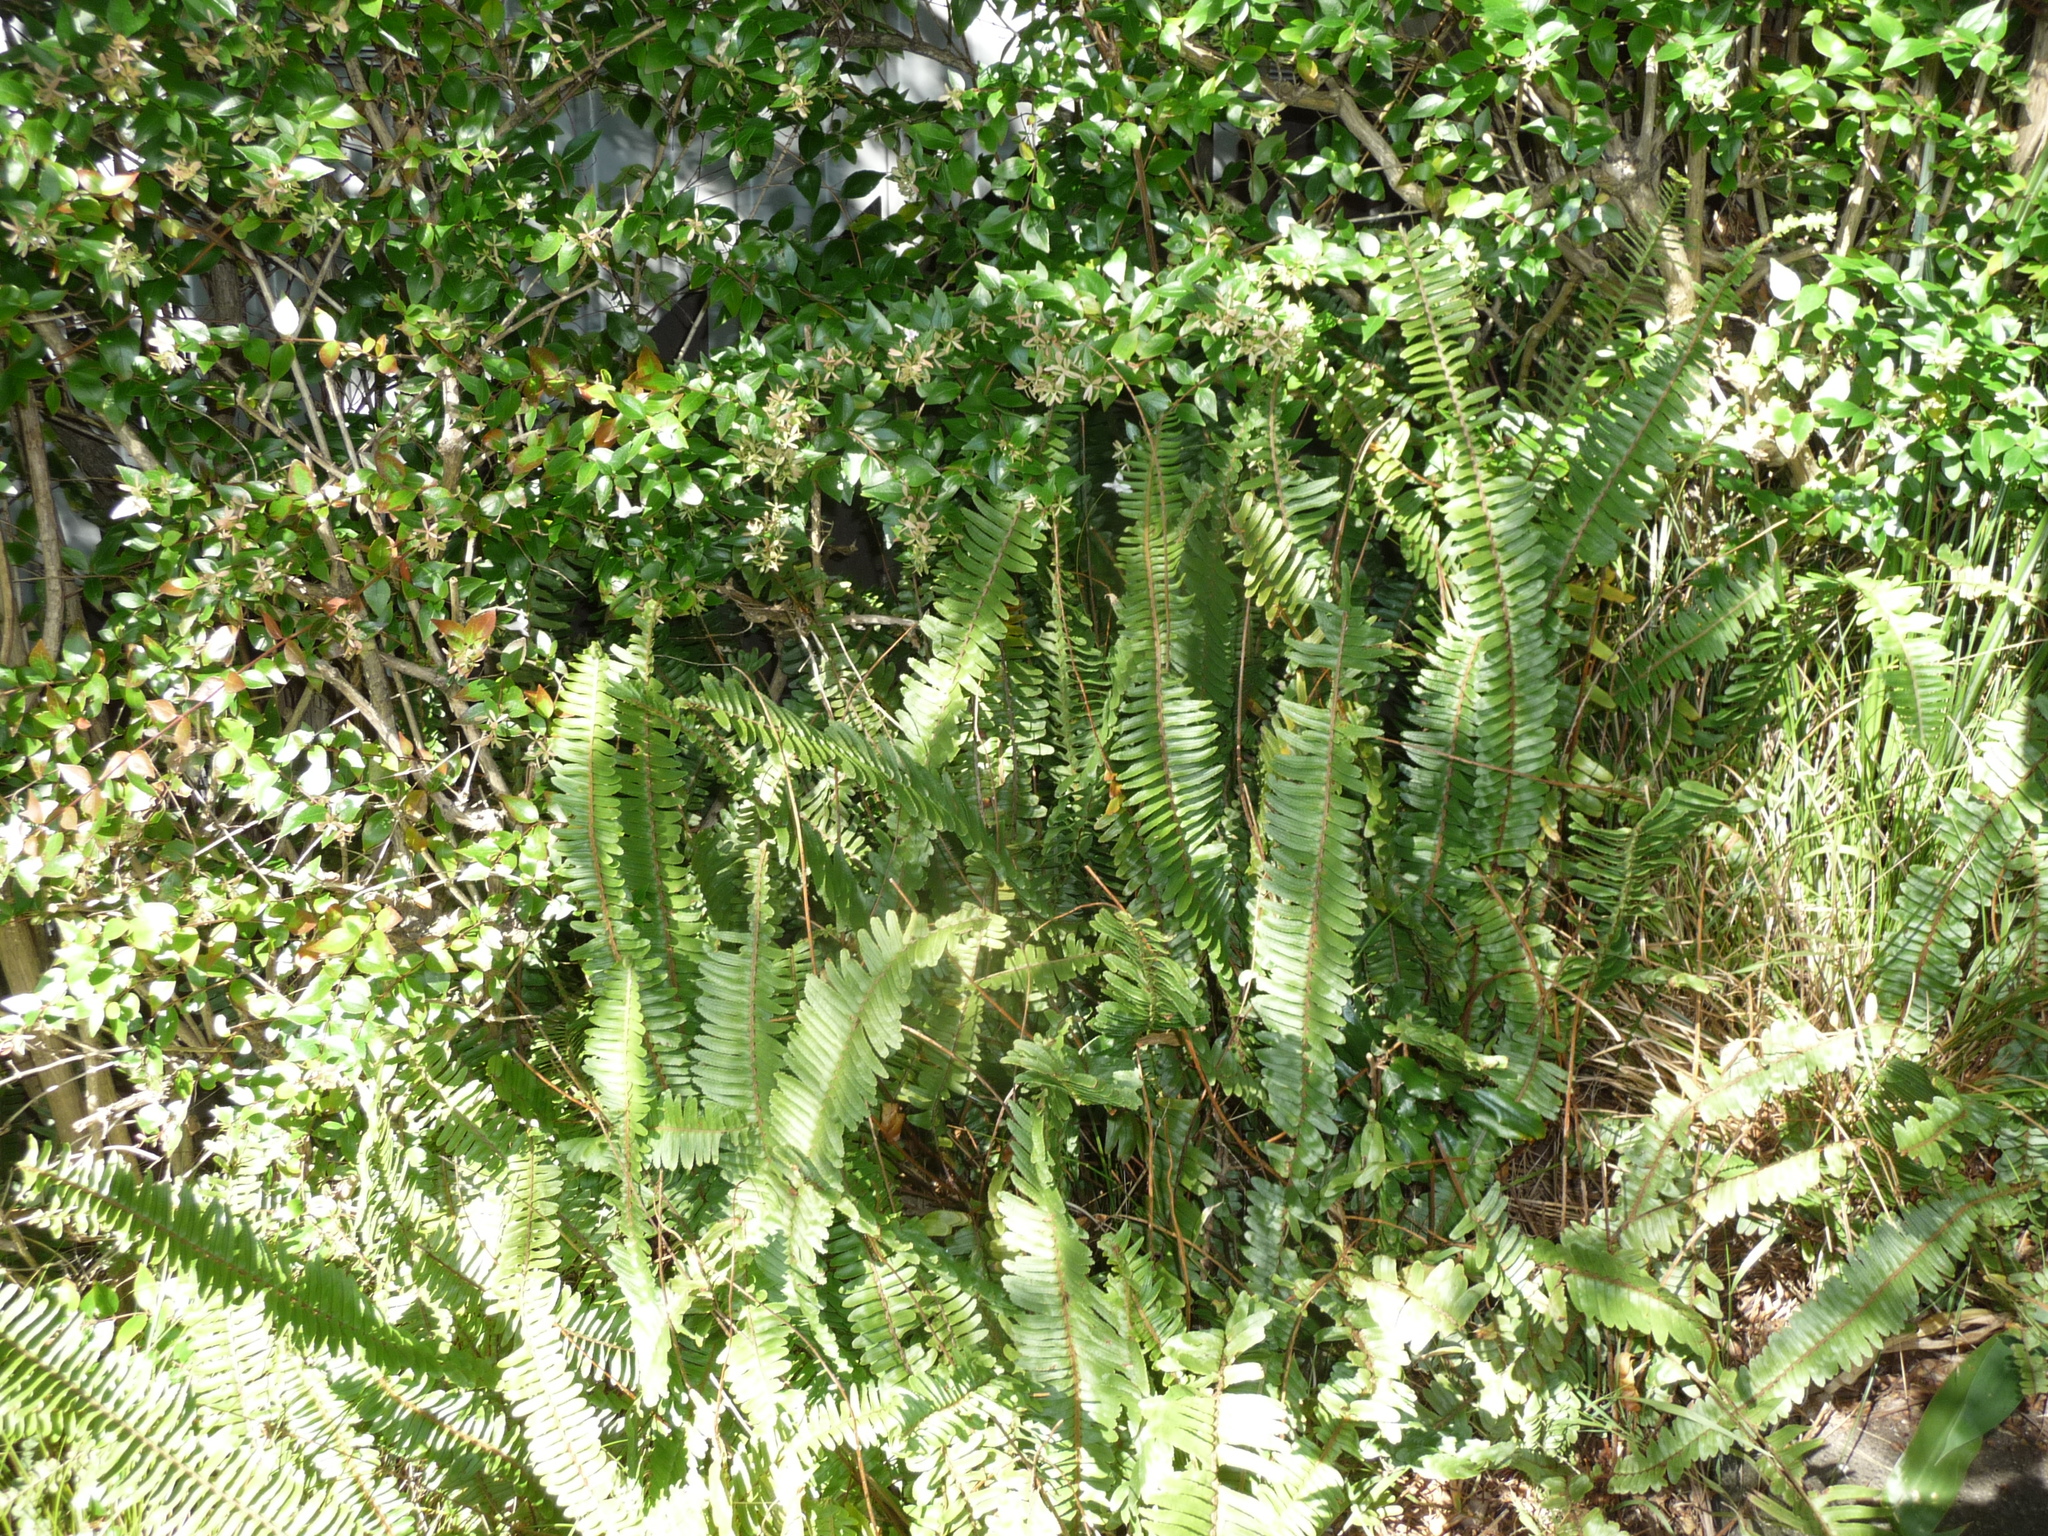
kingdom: Plantae
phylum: Tracheophyta
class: Polypodiopsida
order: Polypodiales
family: Nephrolepidaceae
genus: Nephrolepis
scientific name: Nephrolepis cordifolia
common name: Narrow swordfern
